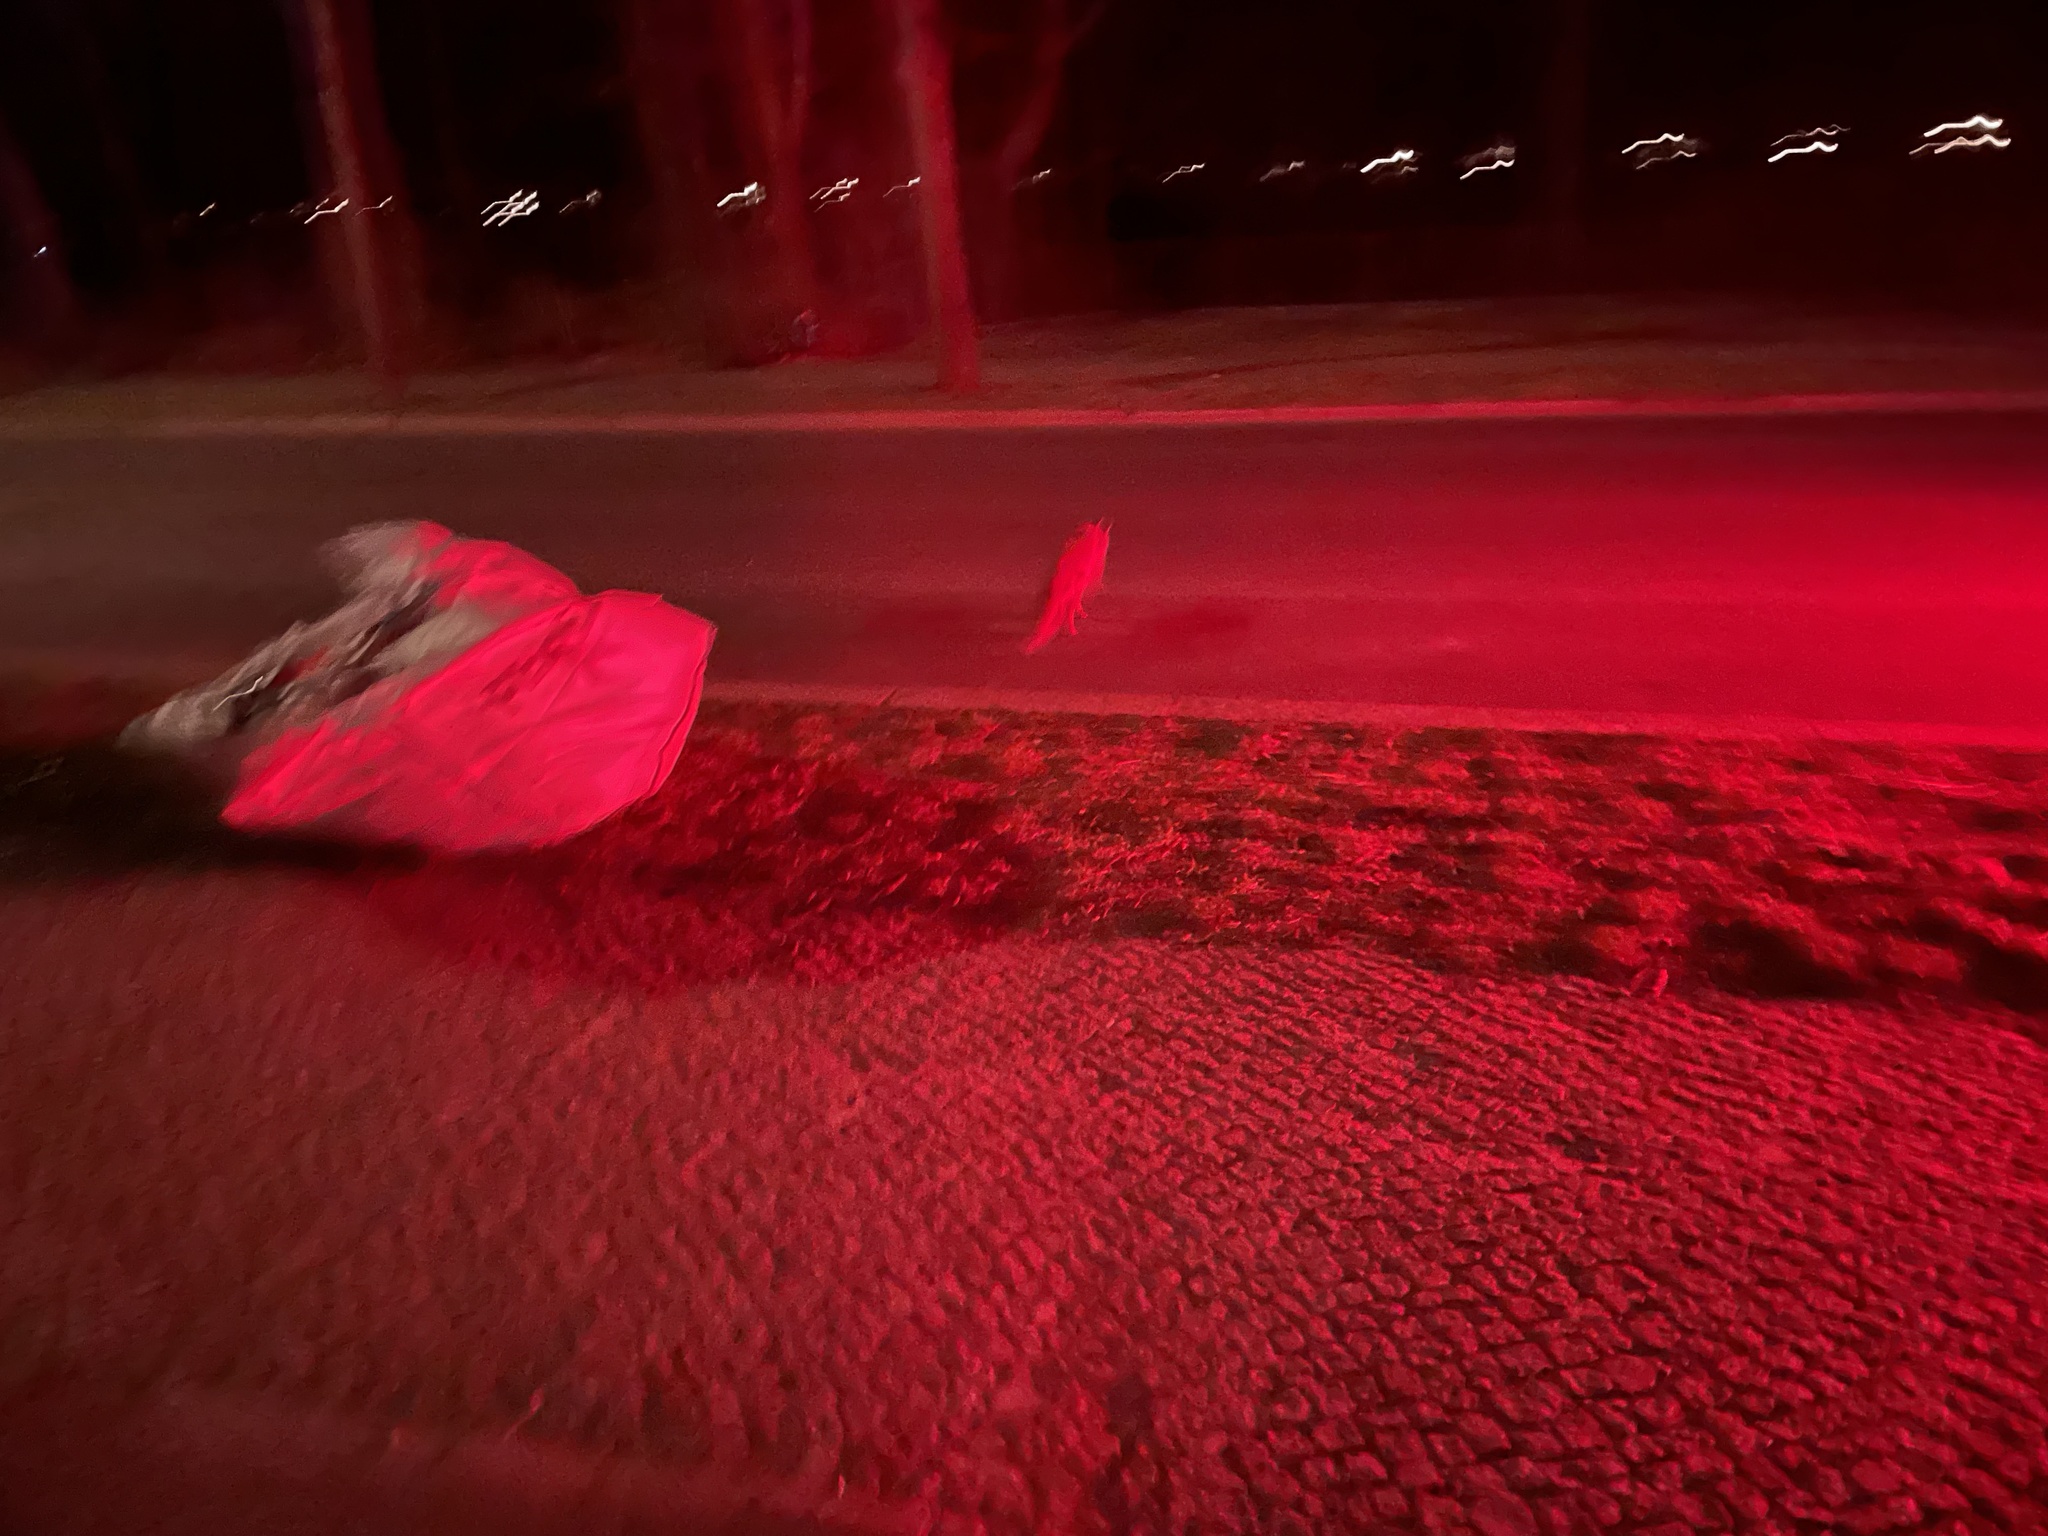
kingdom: Animalia
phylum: Chordata
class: Mammalia
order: Carnivora
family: Canidae
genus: Vulpes
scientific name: Vulpes vulpes
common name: Red fox
